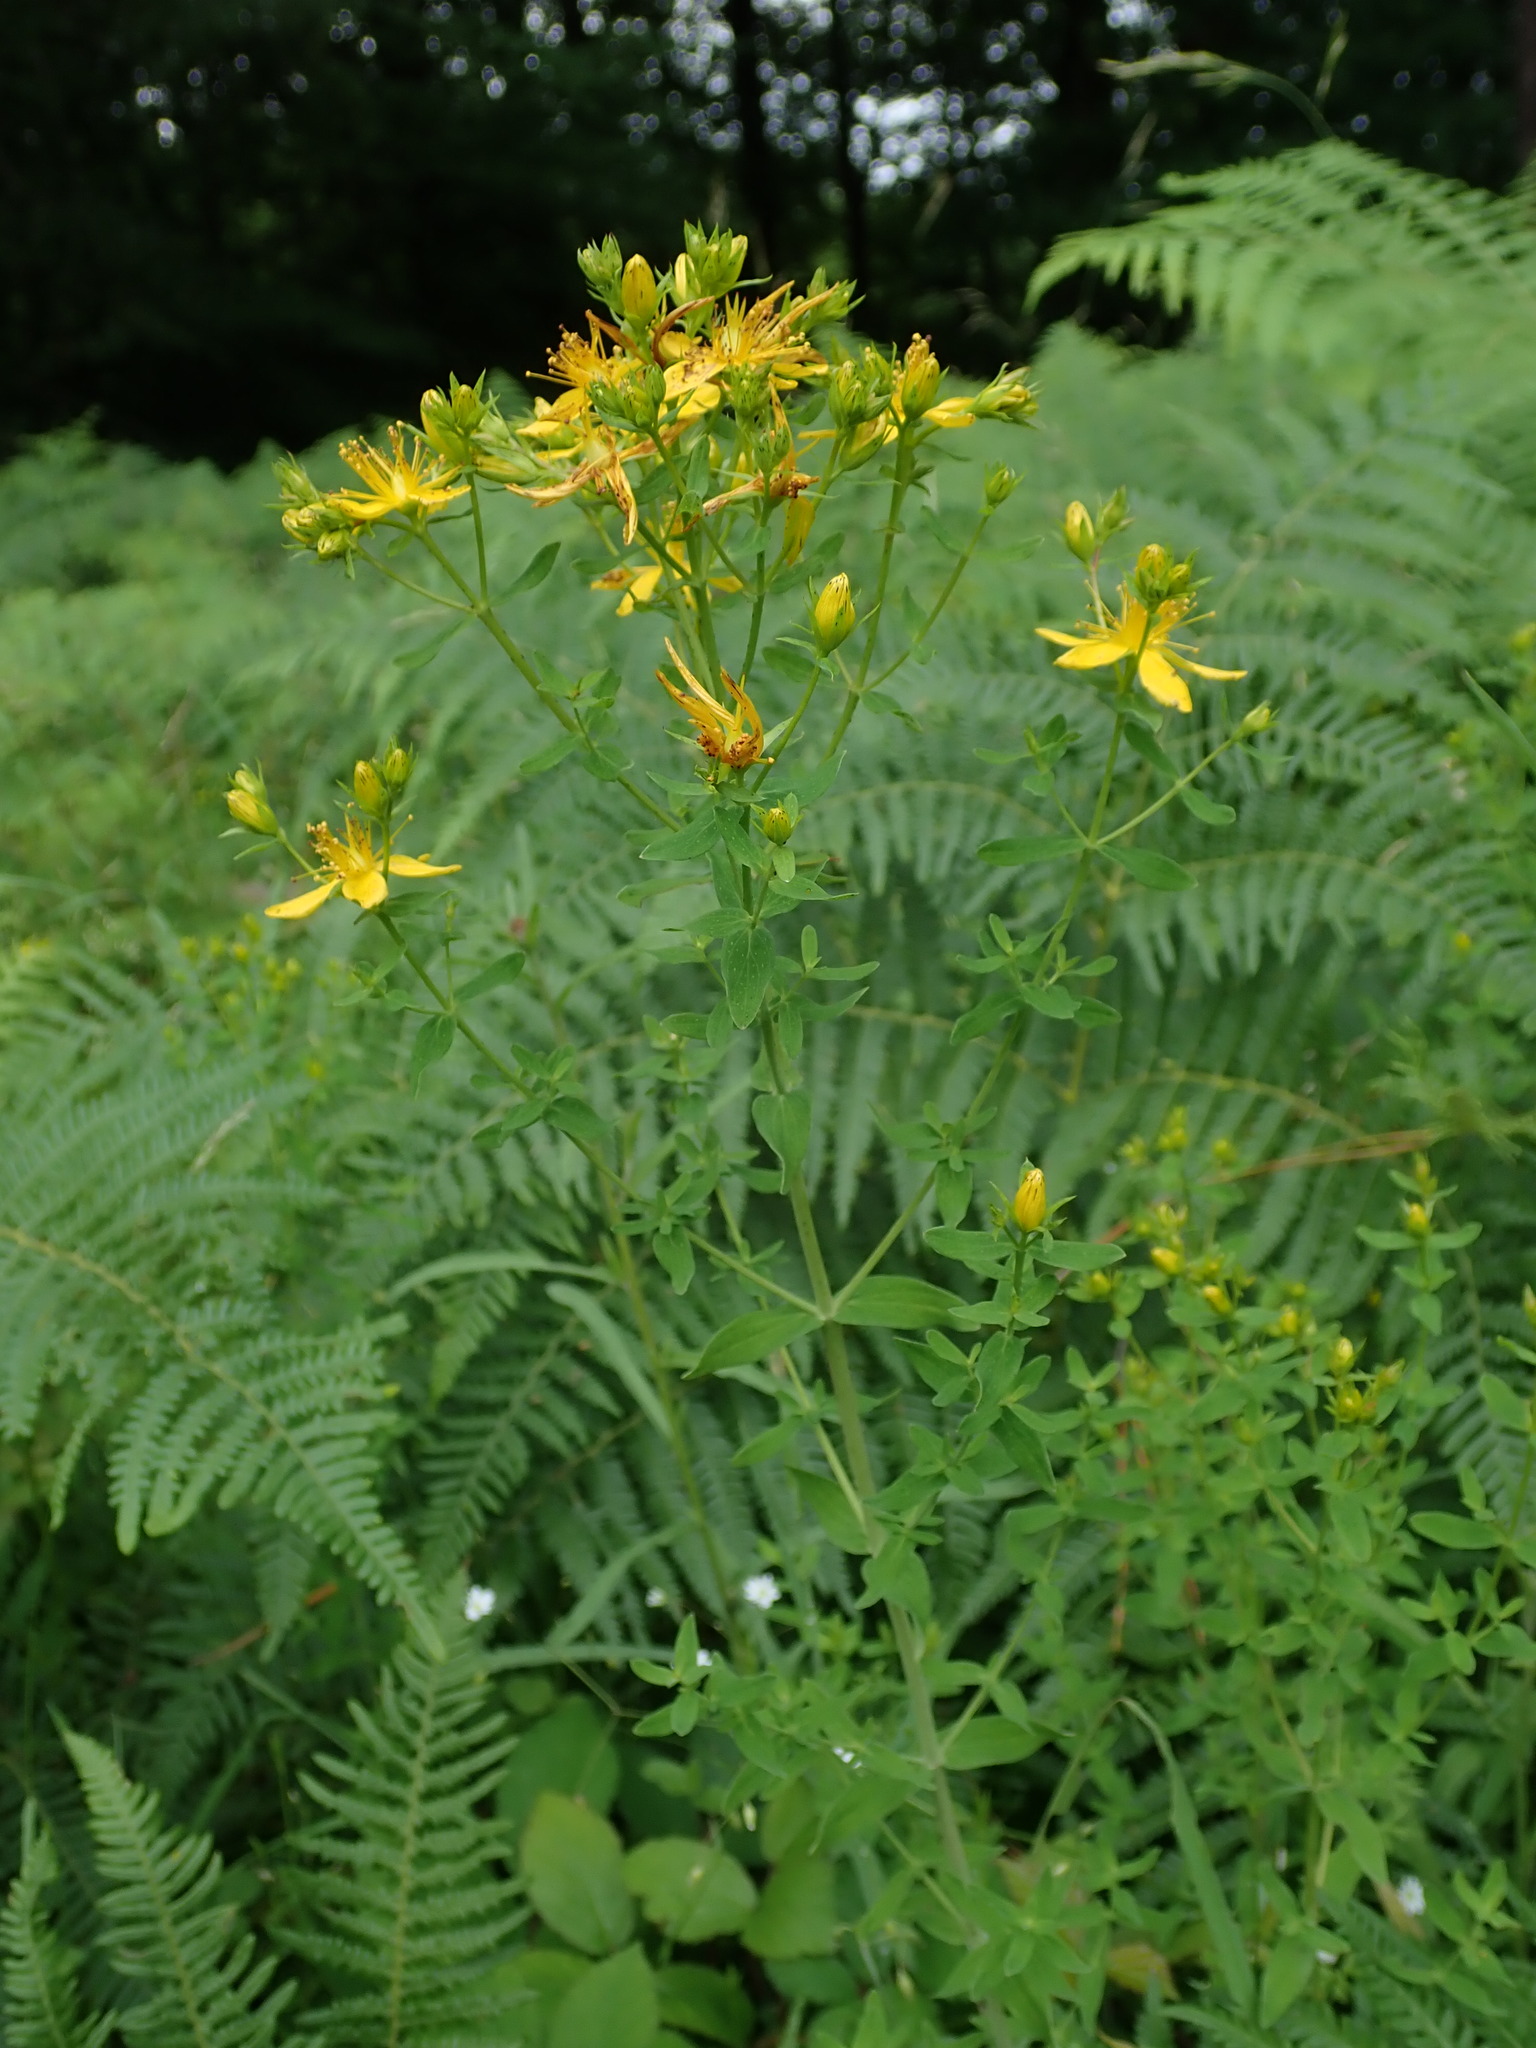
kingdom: Plantae
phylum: Tracheophyta
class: Magnoliopsida
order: Malpighiales
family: Hypericaceae
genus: Hypericum
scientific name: Hypericum perforatum
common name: Common st. johnswort
